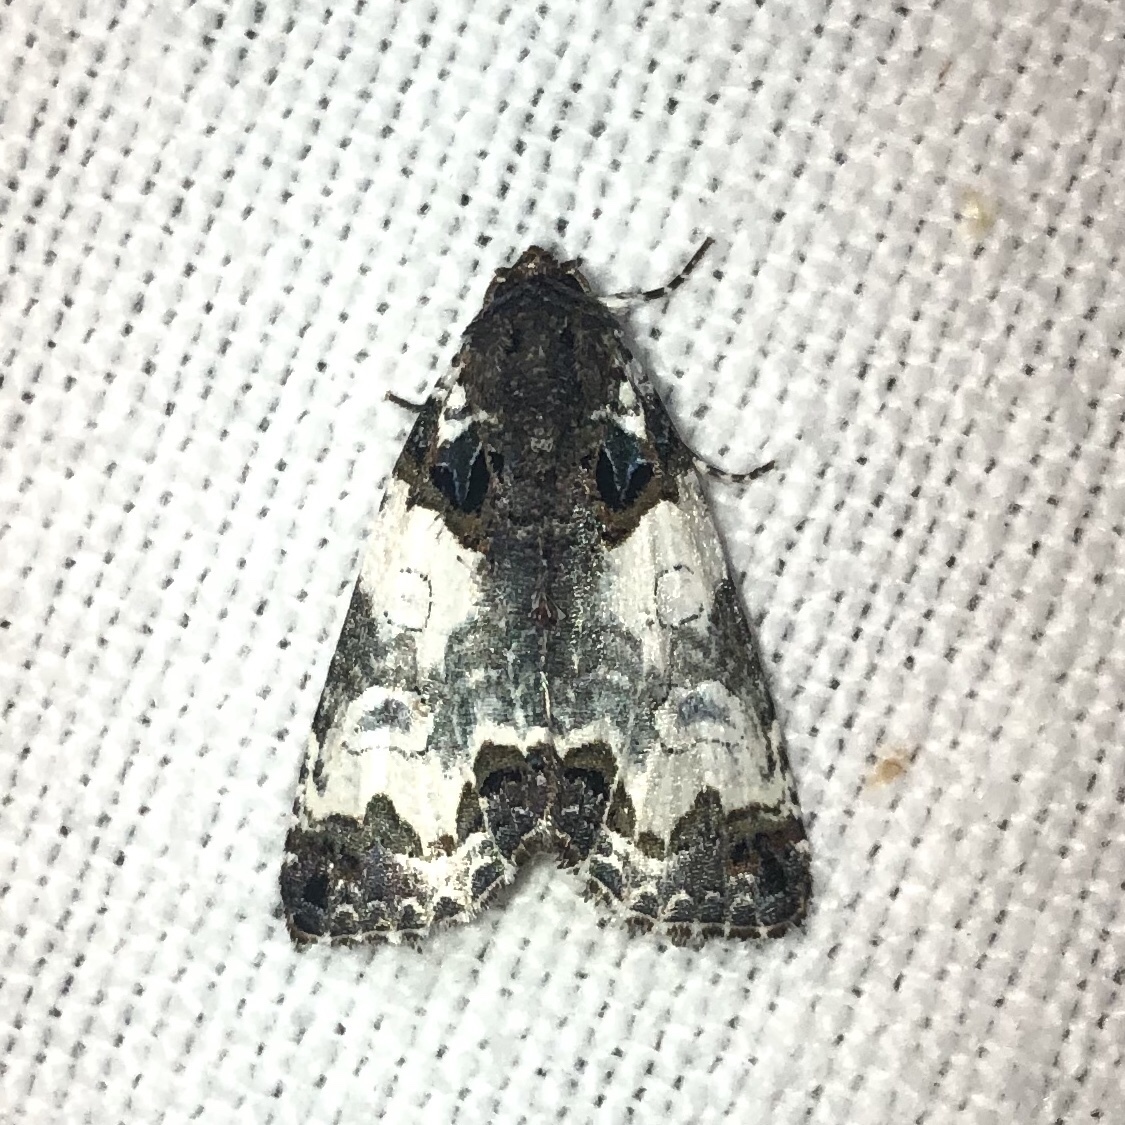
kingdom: Animalia
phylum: Arthropoda
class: Insecta
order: Lepidoptera
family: Noctuidae
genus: Cerma
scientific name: Cerma cerintha
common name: Tufted bird-dropping moth
